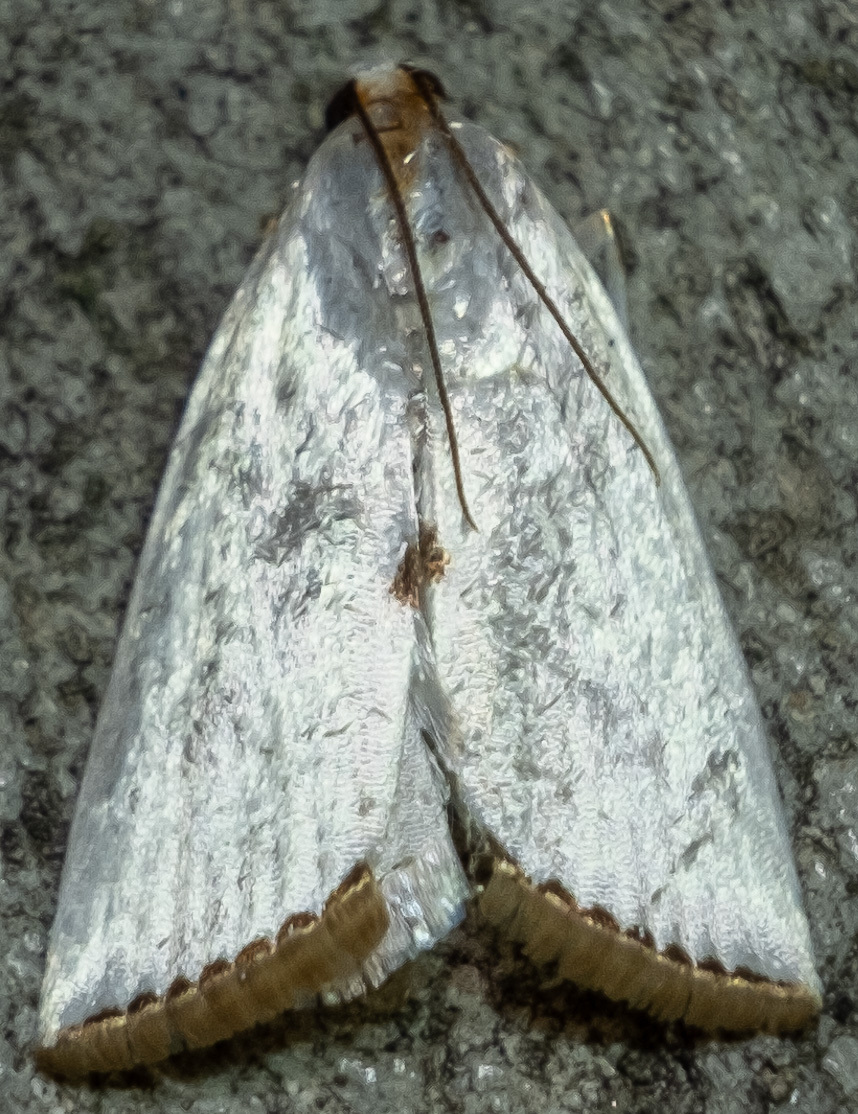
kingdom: Animalia
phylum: Arthropoda
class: Insecta
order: Lepidoptera
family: Crambidae
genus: Argyria
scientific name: Argyria nivalis
